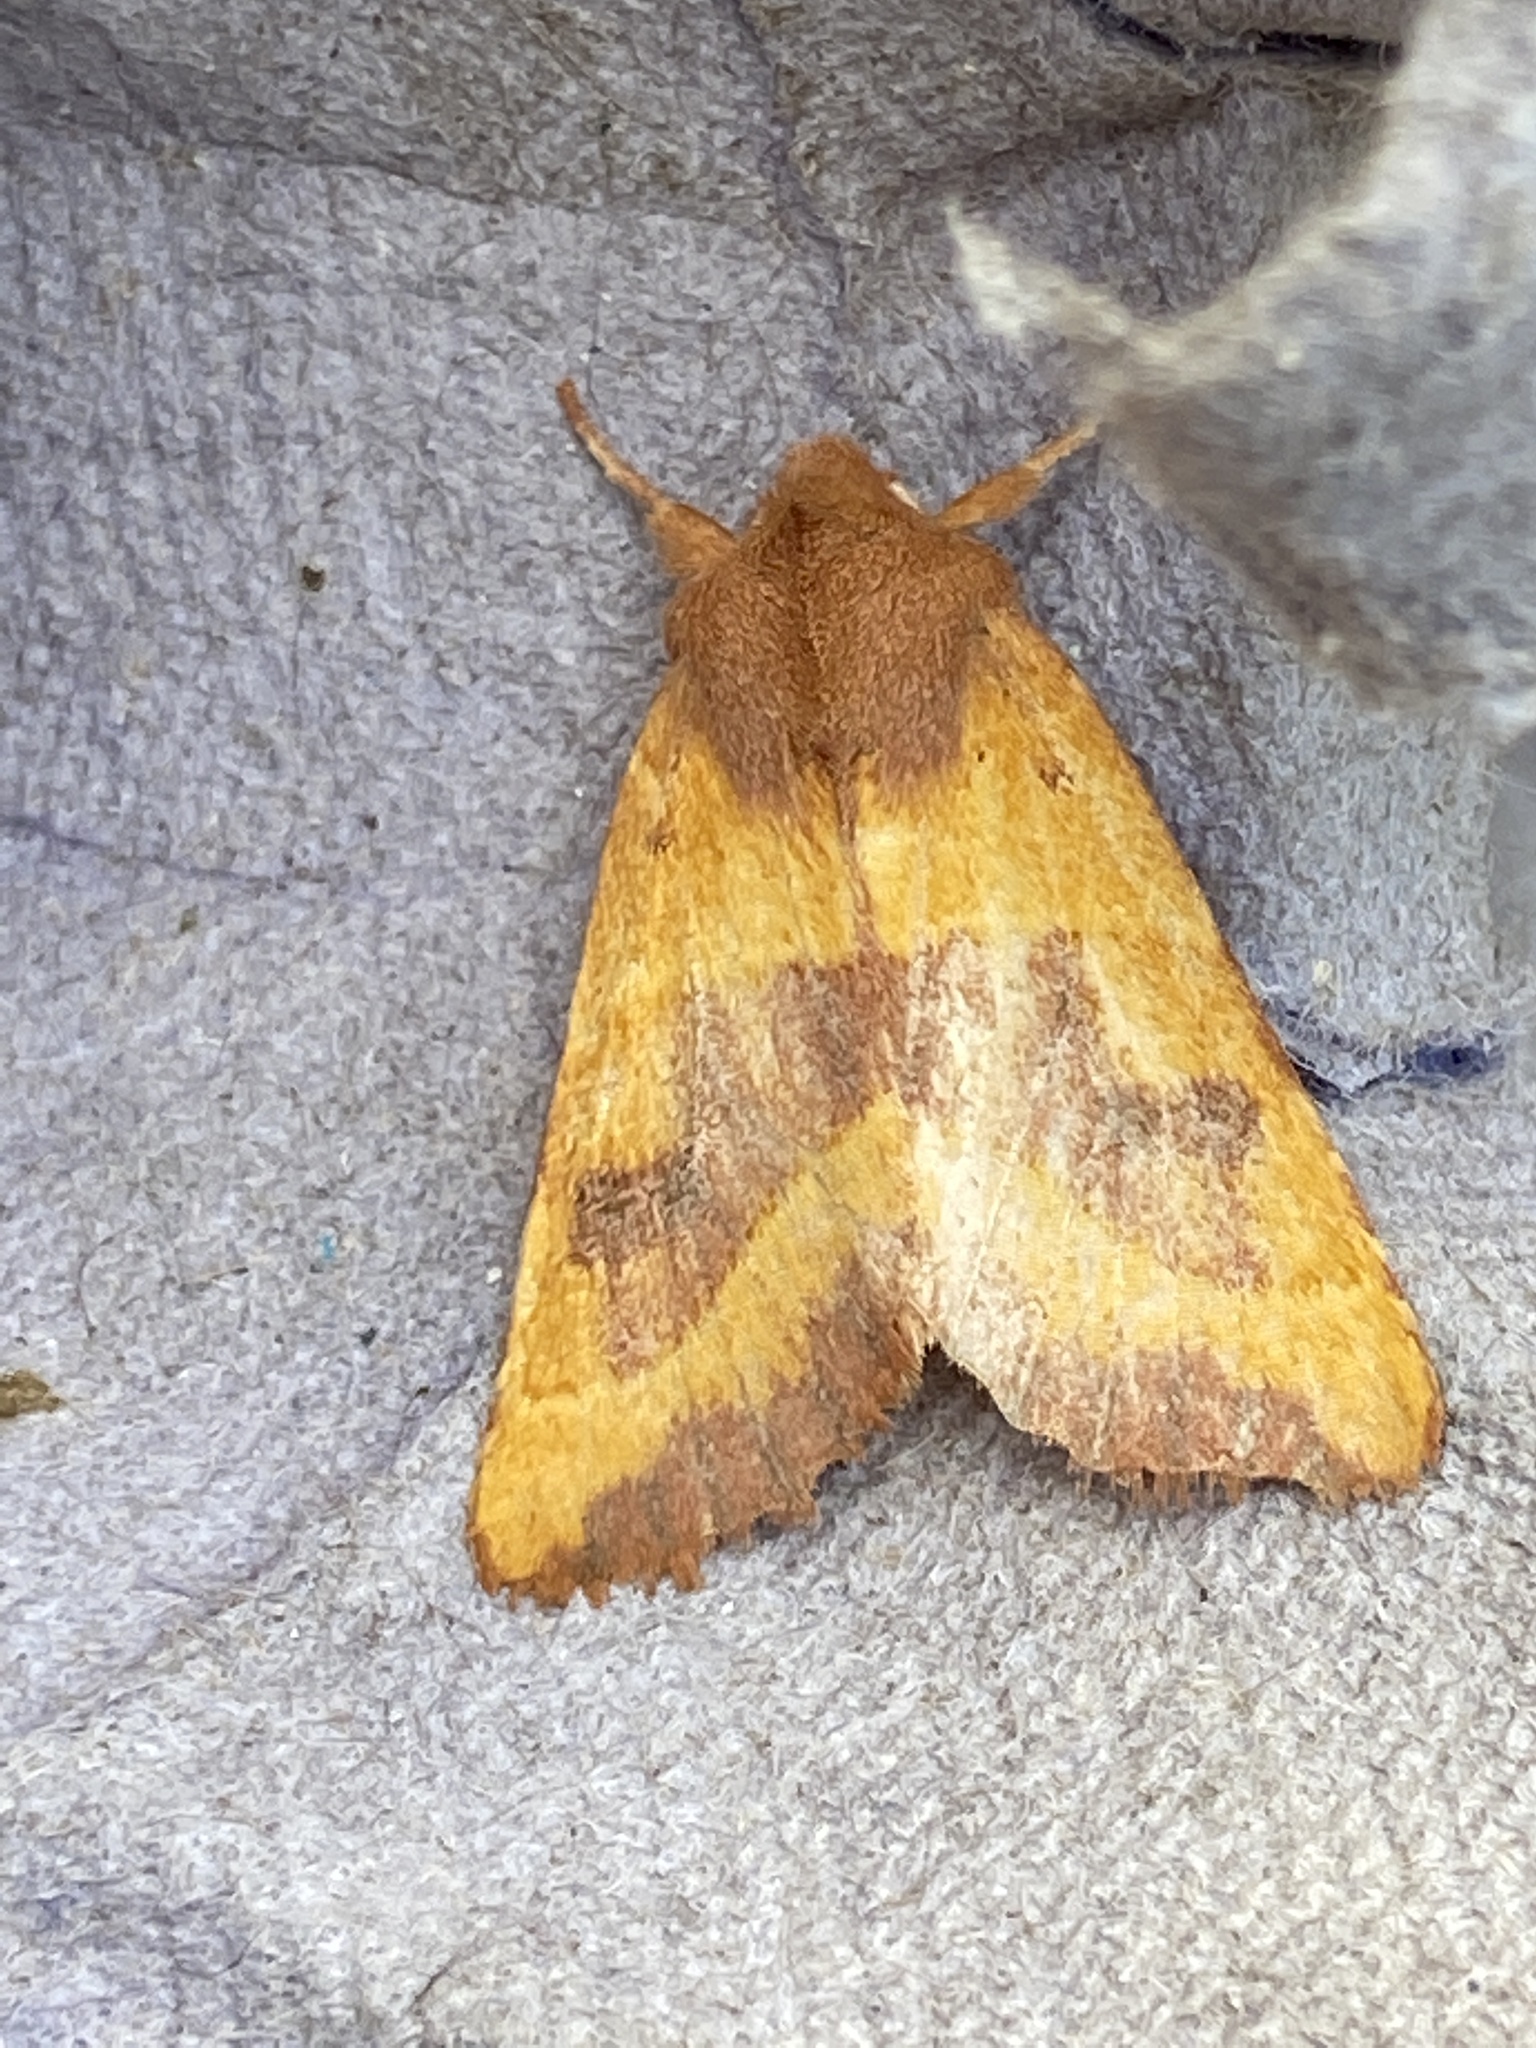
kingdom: Animalia
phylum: Arthropoda
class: Insecta
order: Lepidoptera
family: Noctuidae
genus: Atethmia
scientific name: Atethmia centrago
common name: Centre-barred sallow
